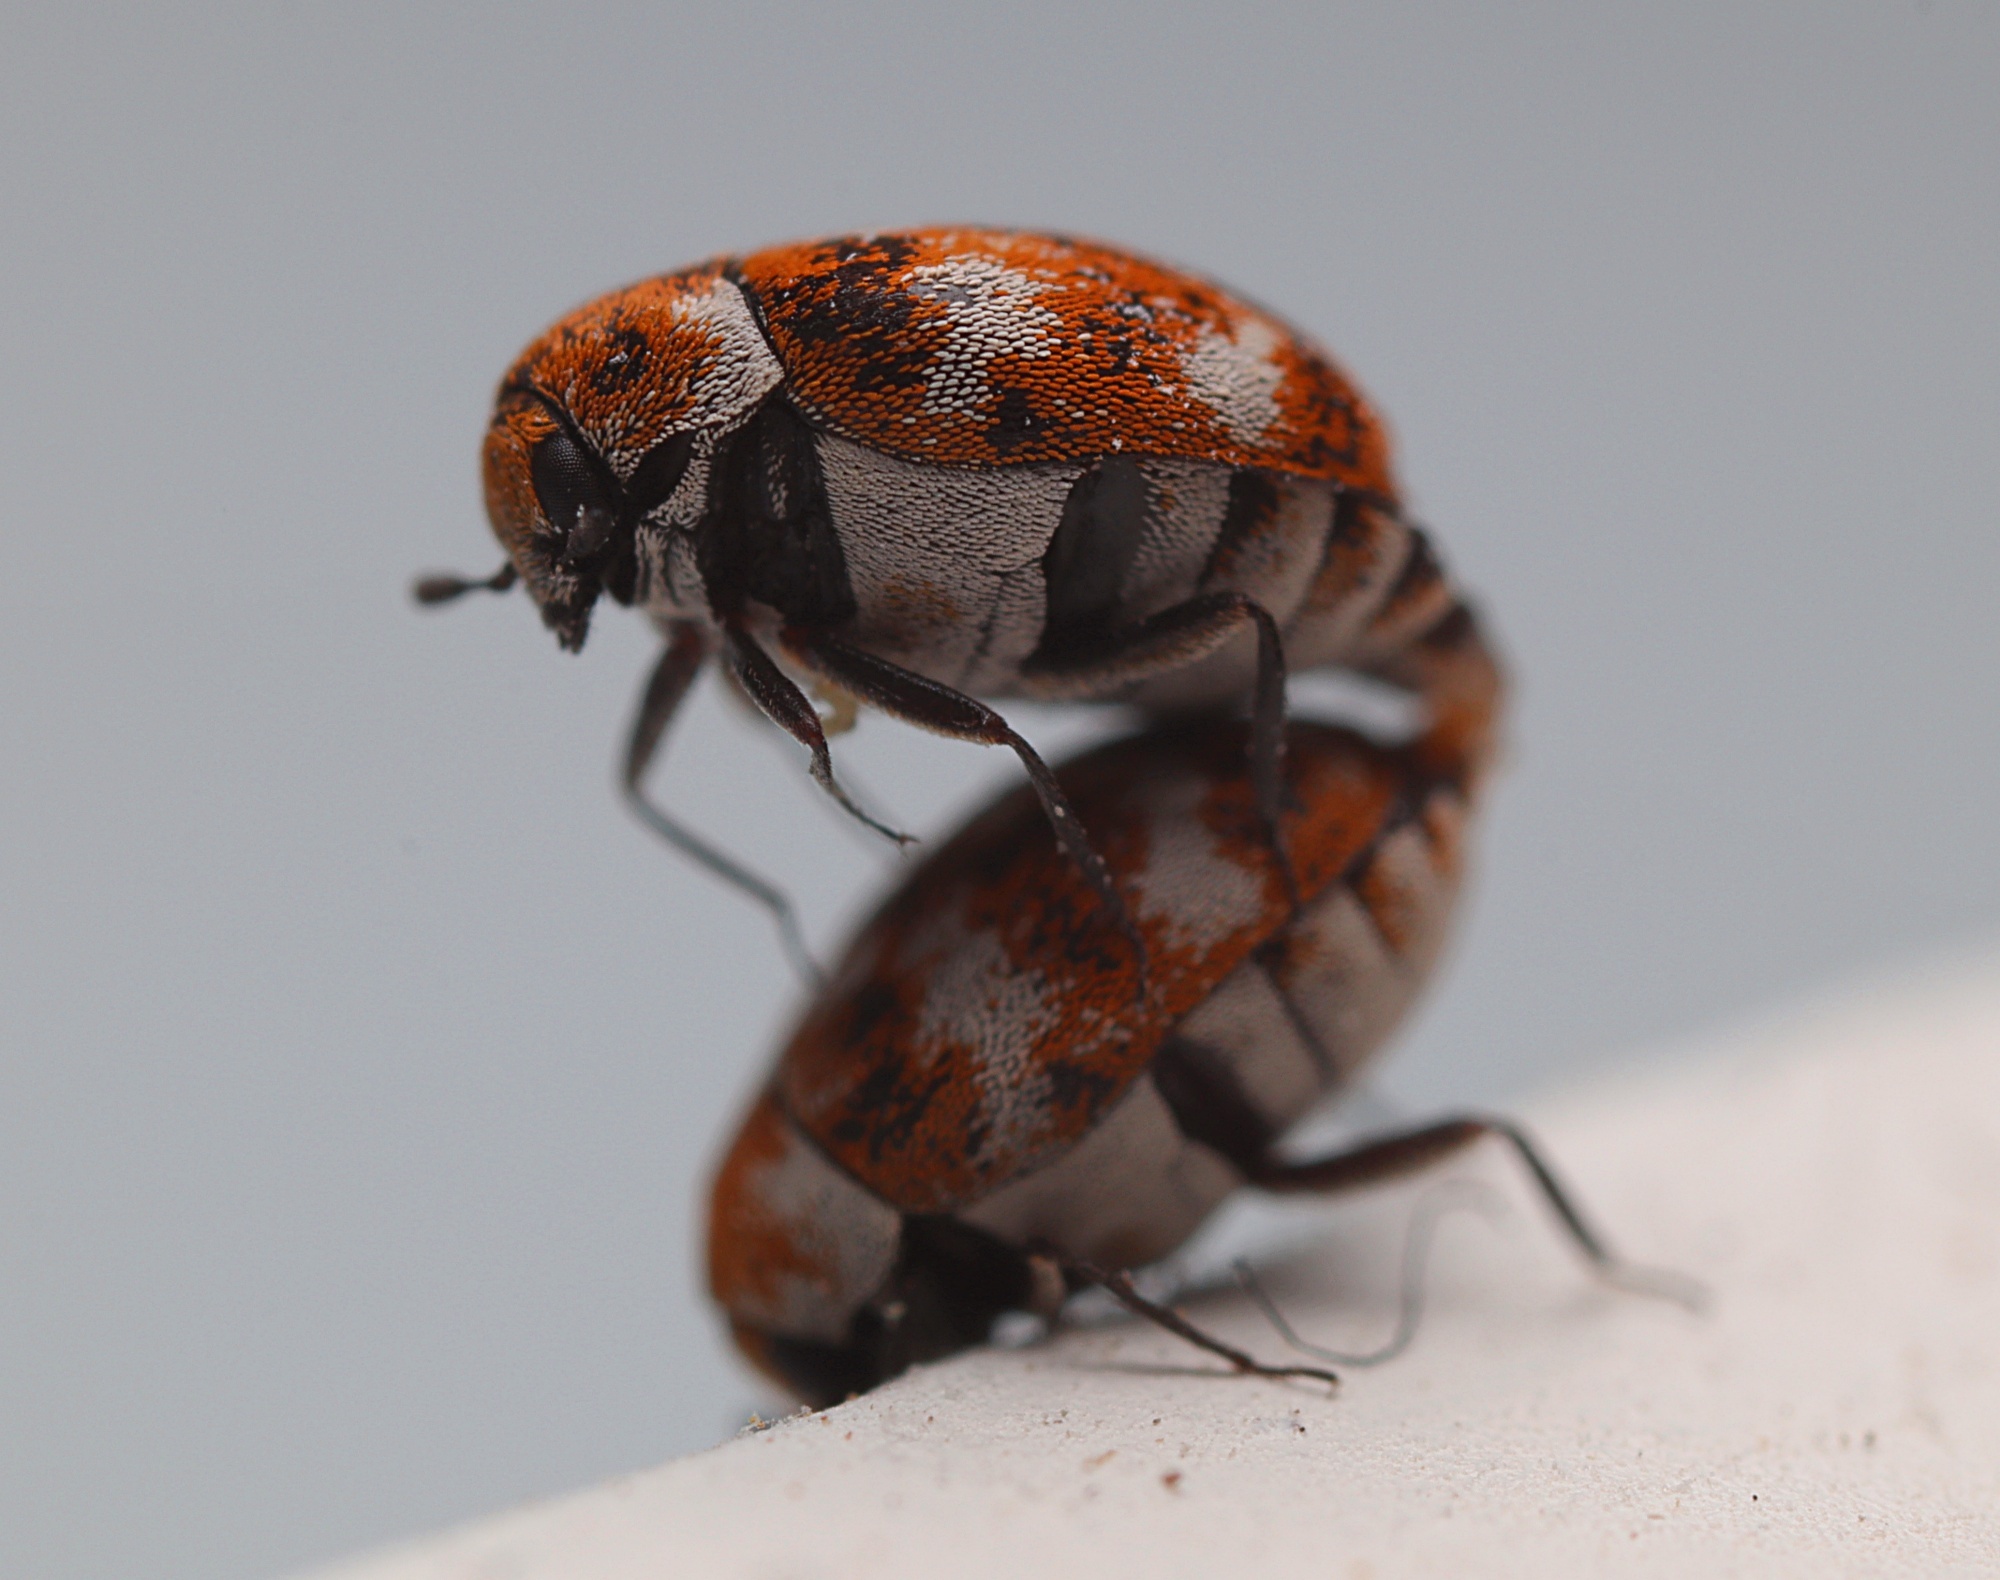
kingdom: Animalia
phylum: Arthropoda
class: Insecta
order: Coleoptera
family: Dermestidae
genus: Anthrenus
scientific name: Anthrenus verbasci
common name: Varied carpet beetle
